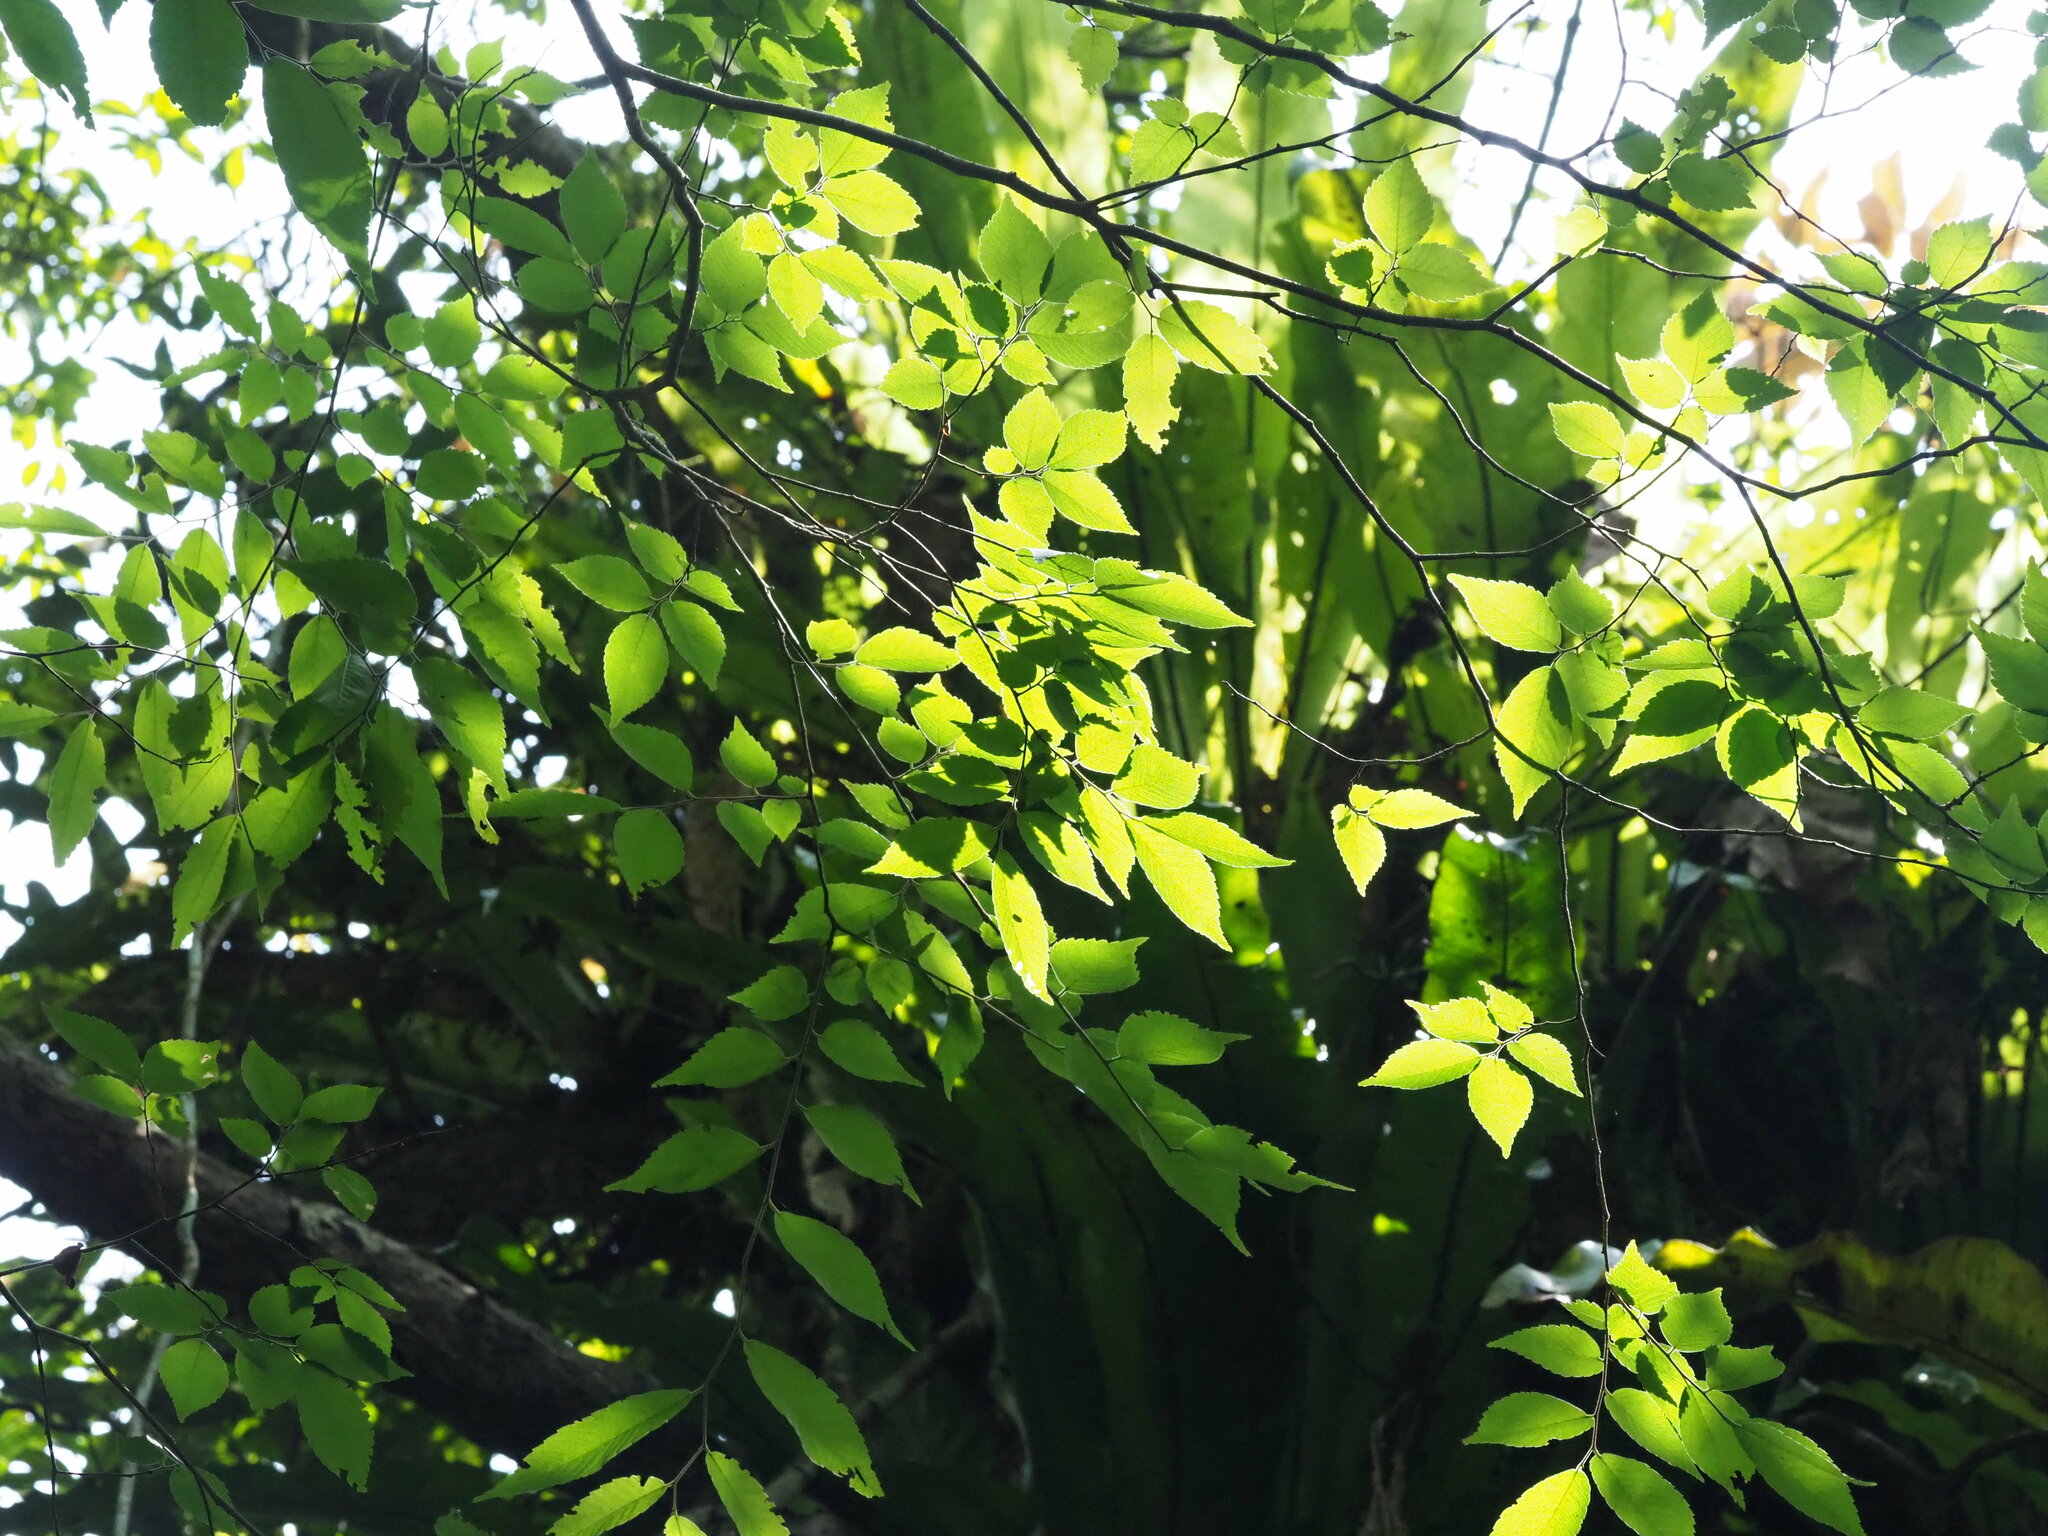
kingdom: Plantae
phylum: Tracheophyta
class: Magnoliopsida
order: Rosales
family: Ulmaceae
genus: Zelkova
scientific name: Zelkova serrata
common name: Japanese zelkova
